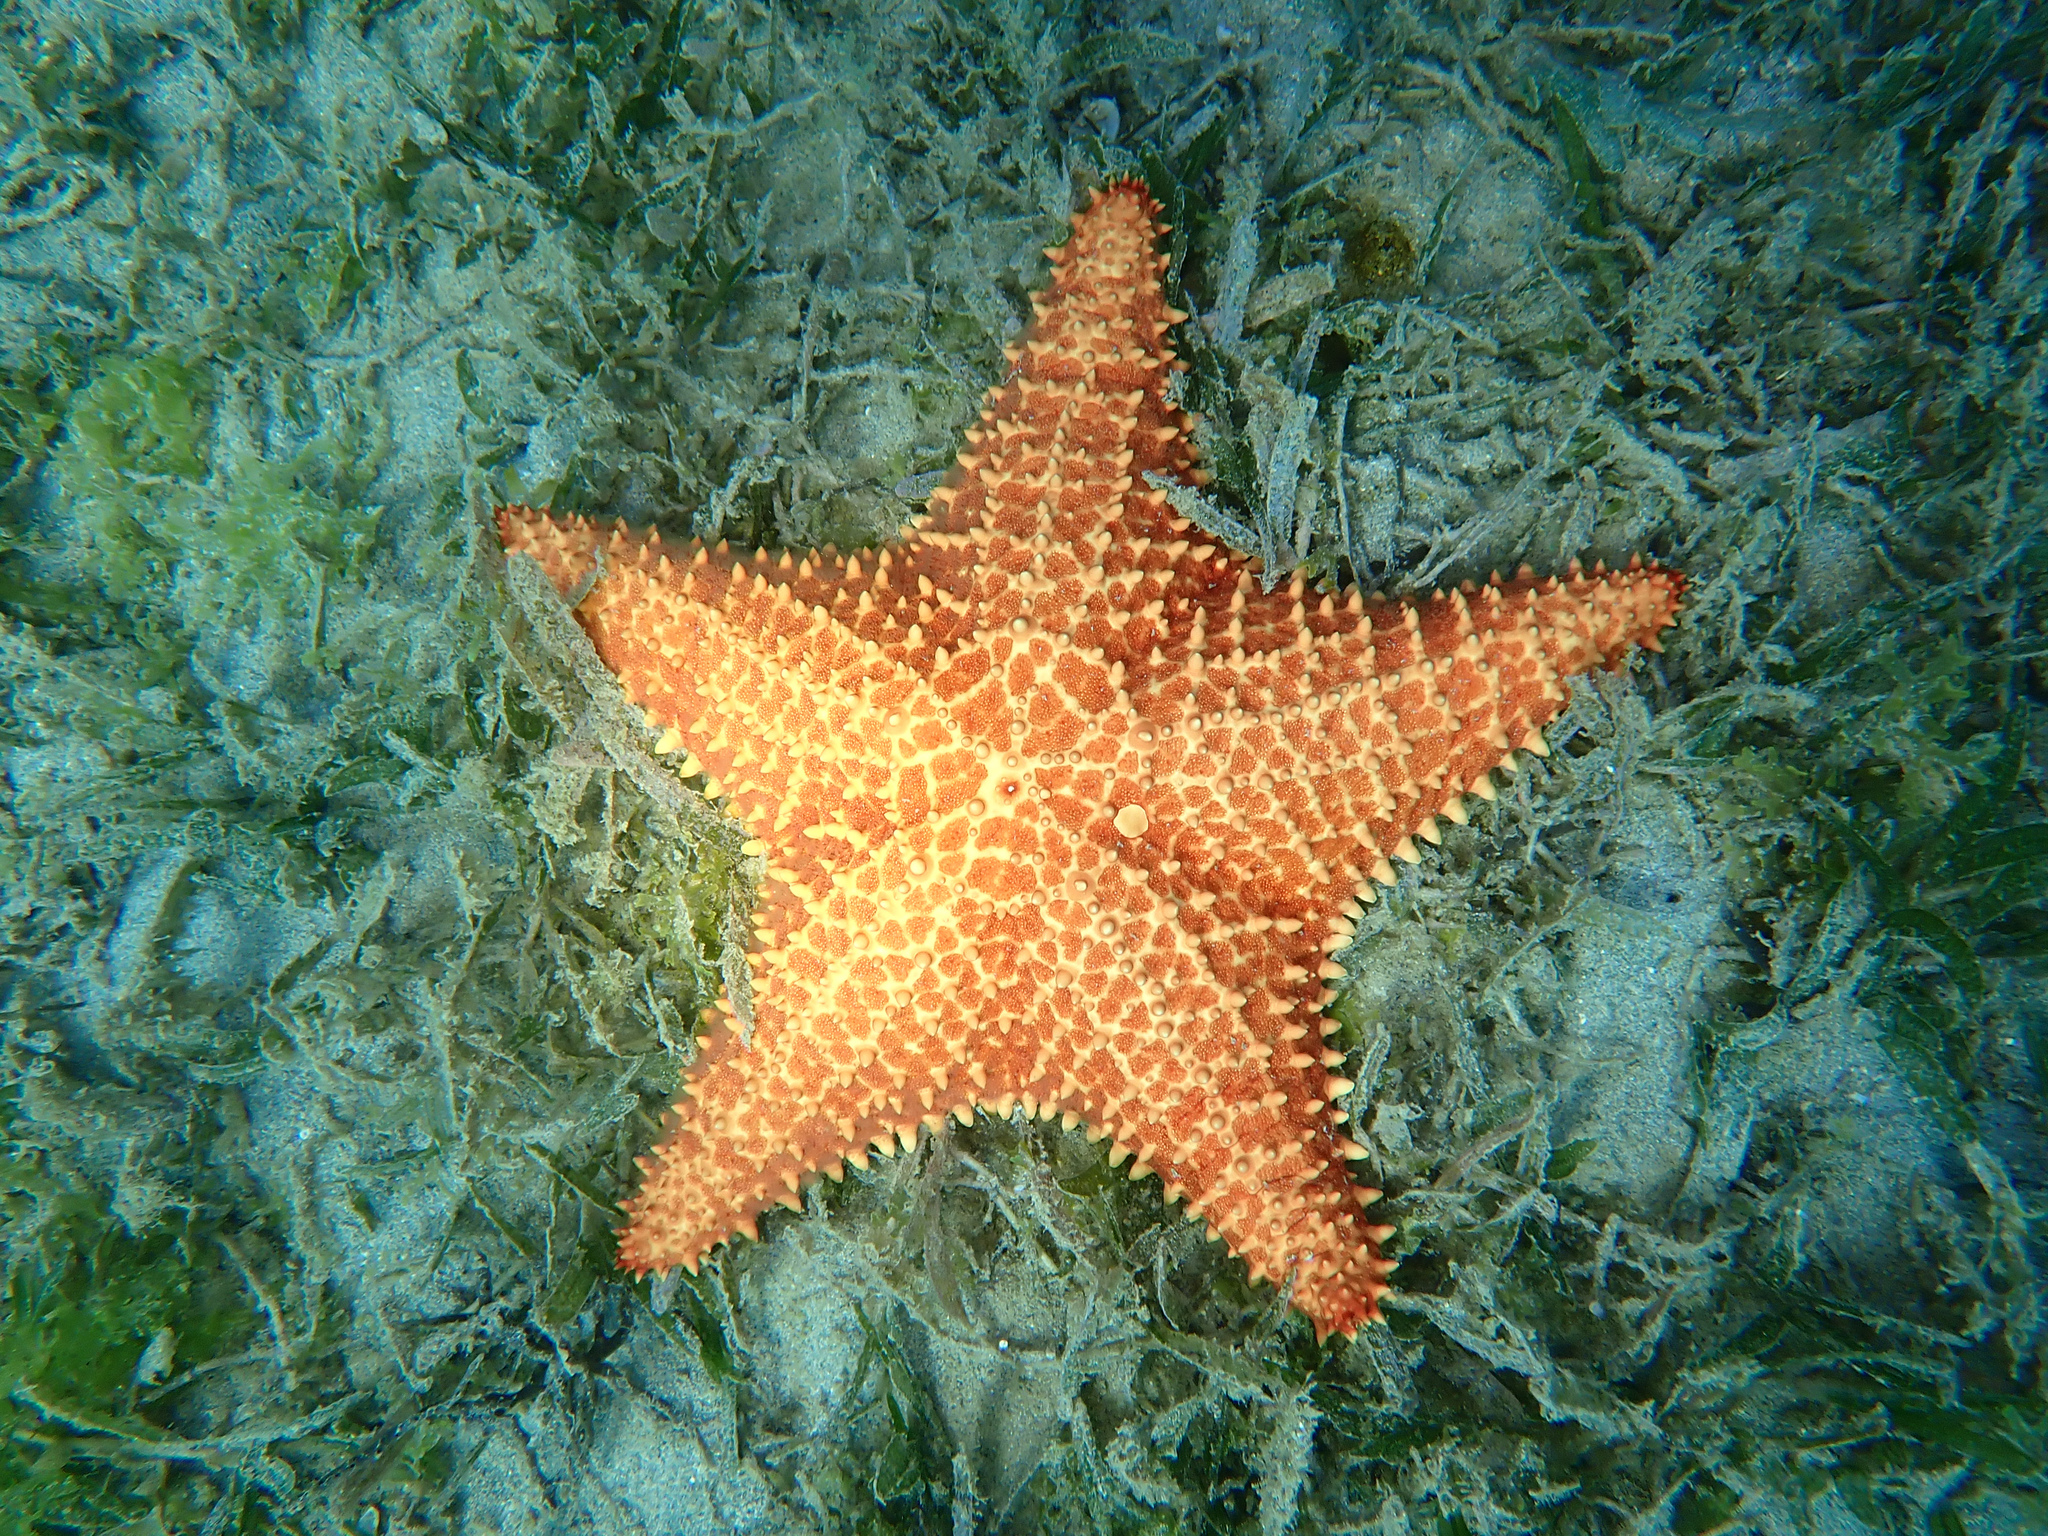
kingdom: Animalia
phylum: Echinodermata
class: Asteroidea
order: Valvatida
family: Oreasteridae
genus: Oreaster
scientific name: Oreaster reticulatus
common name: Cushion sea star
